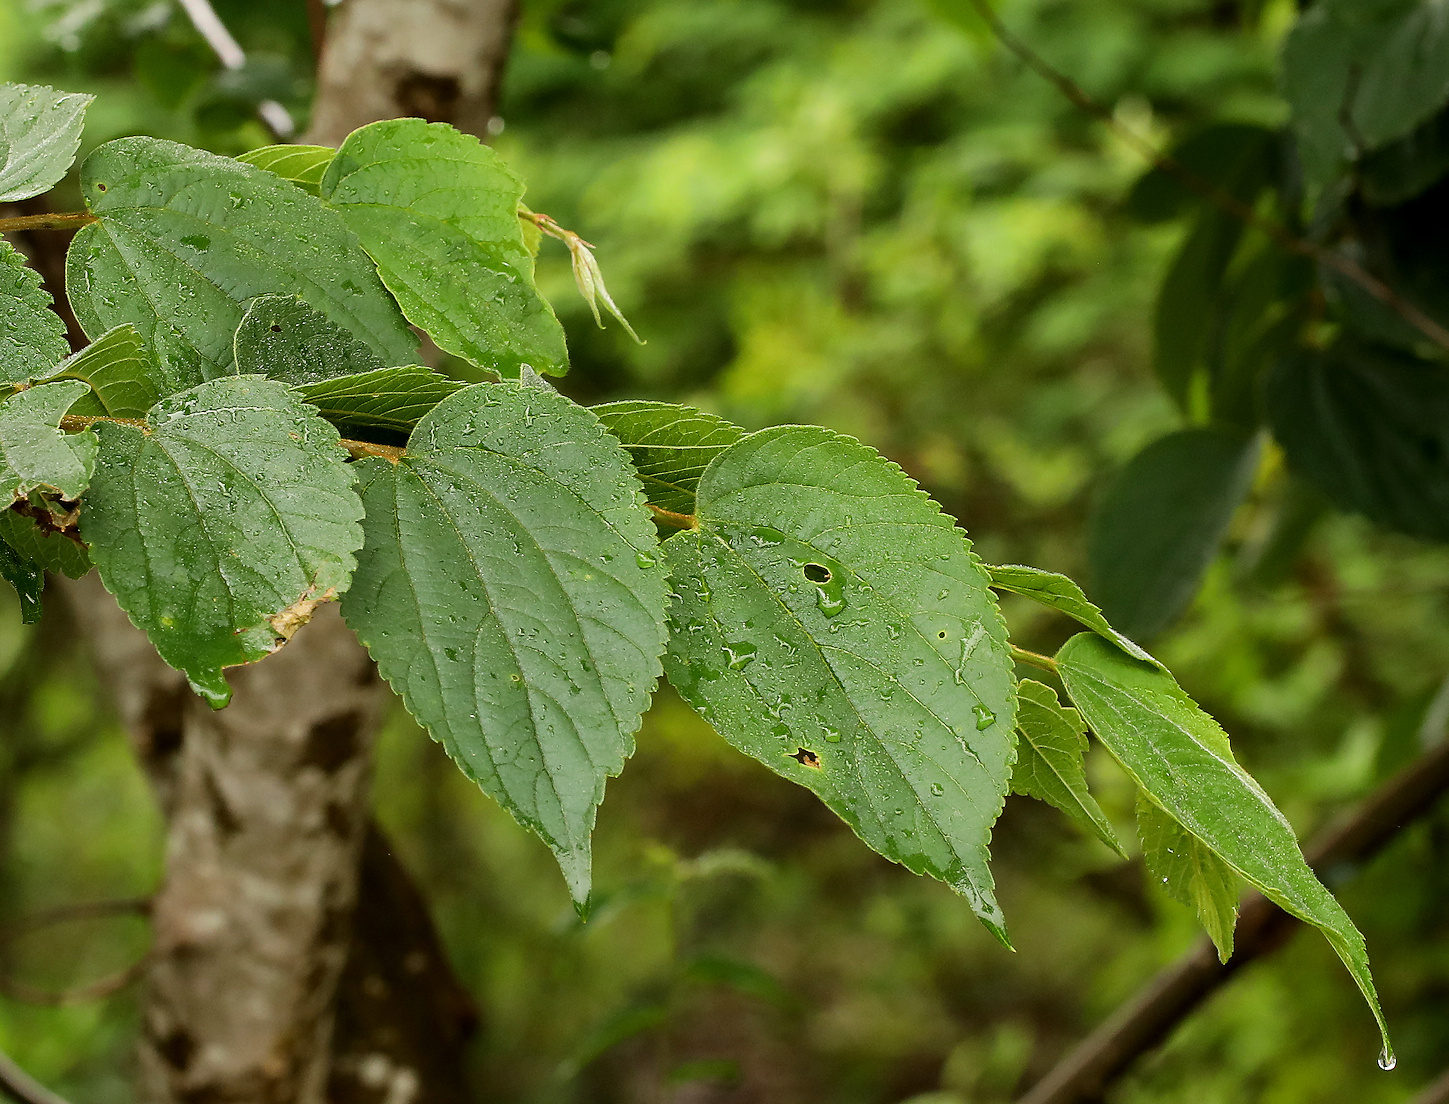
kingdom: Plantae
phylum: Tracheophyta
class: Magnoliopsida
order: Rosales
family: Cannabaceae
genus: Celtis
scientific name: Celtis africana
